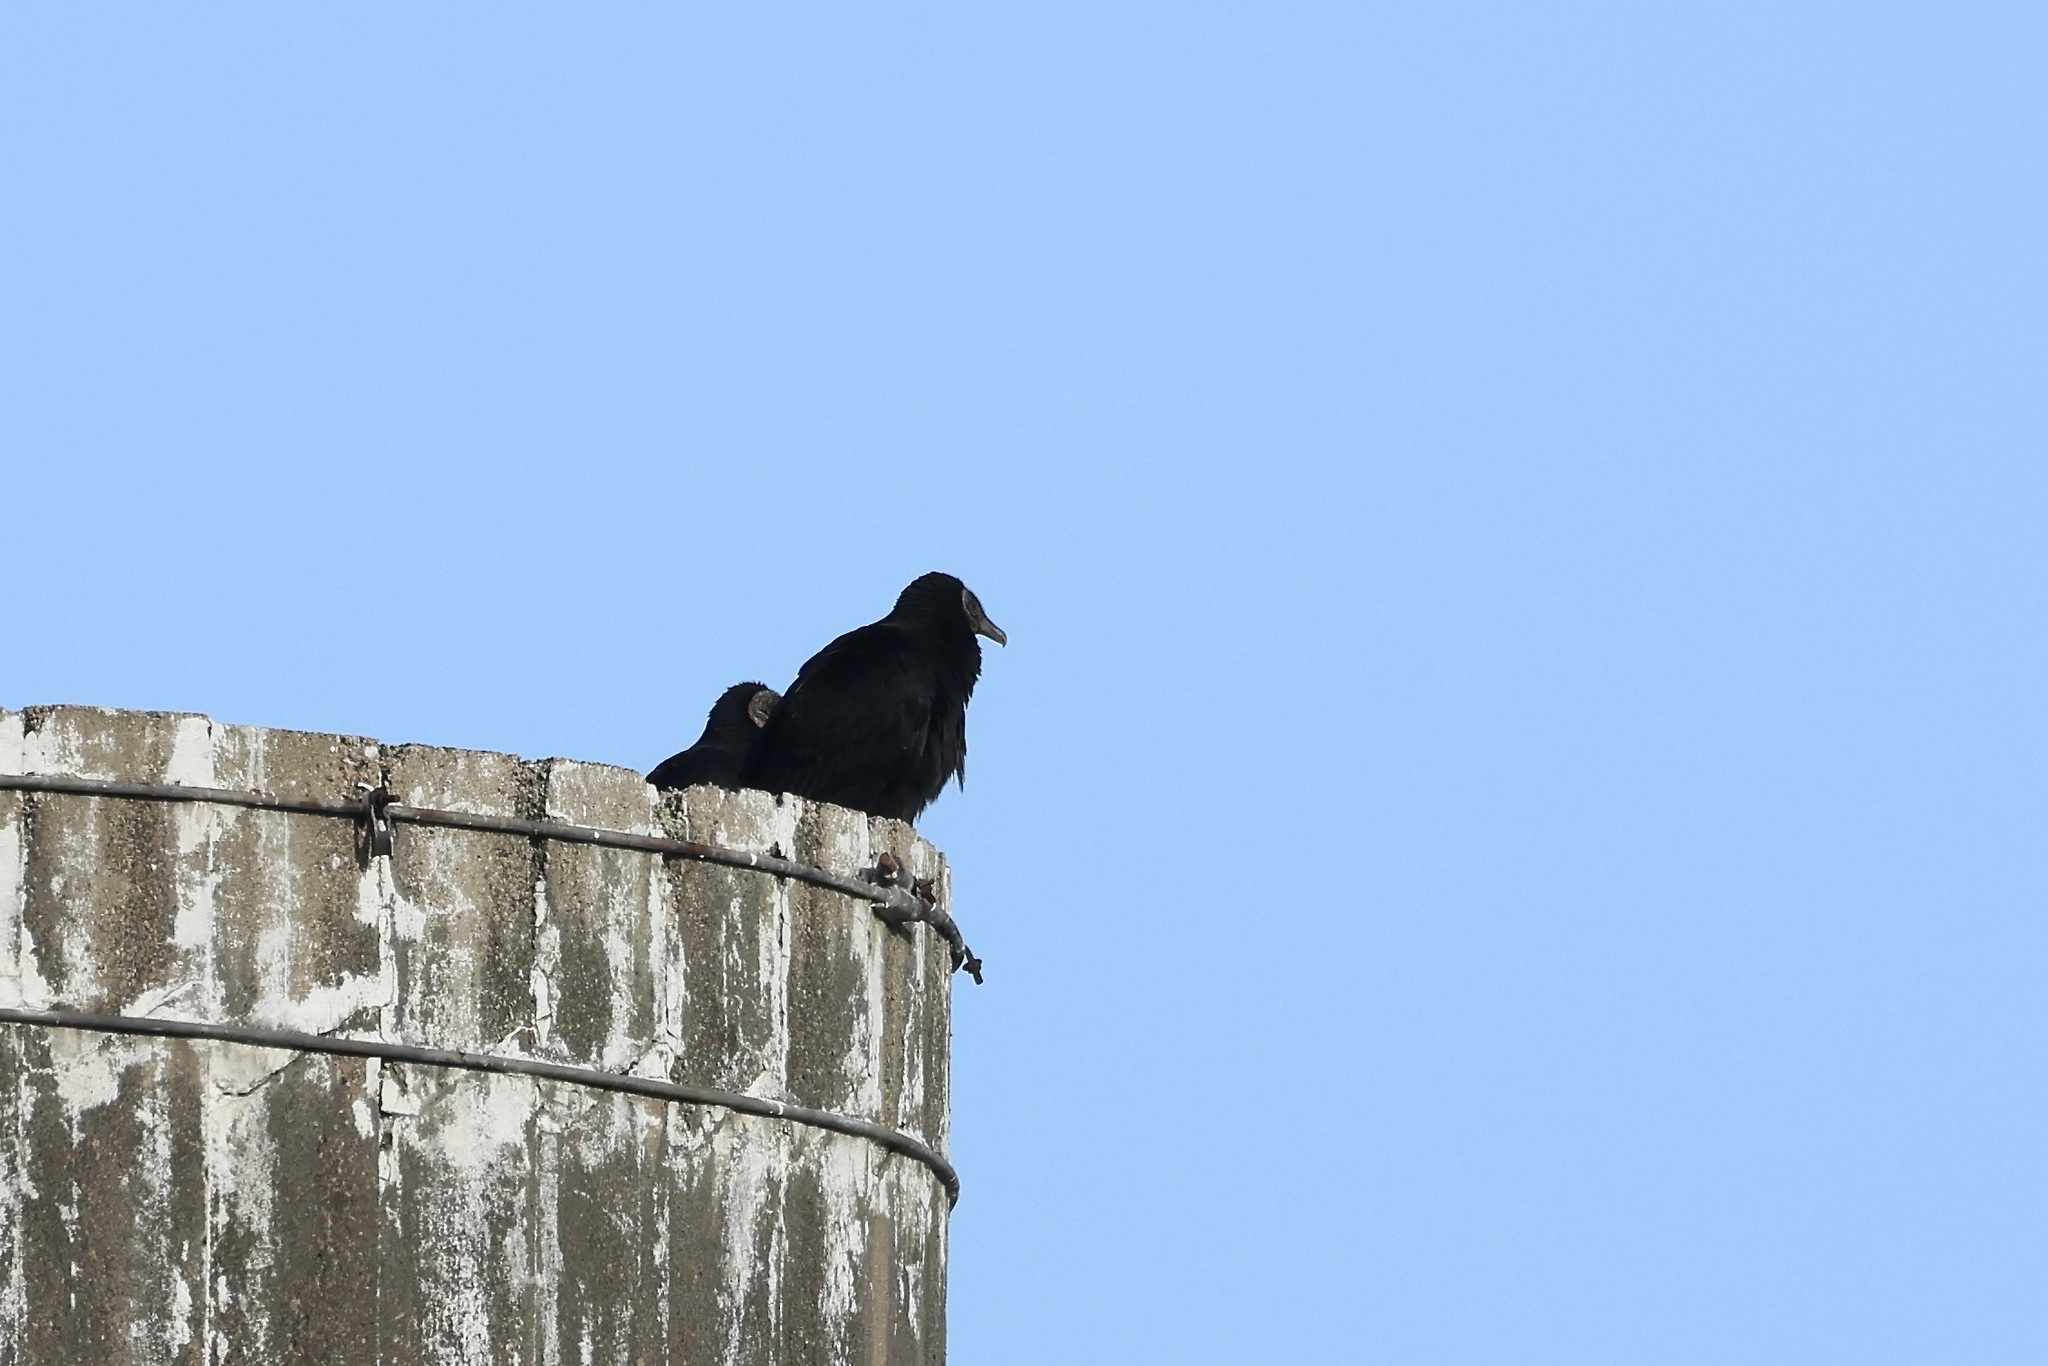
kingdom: Animalia
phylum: Chordata
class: Aves
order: Accipitriformes
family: Cathartidae
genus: Coragyps
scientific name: Coragyps atratus
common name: Black vulture
